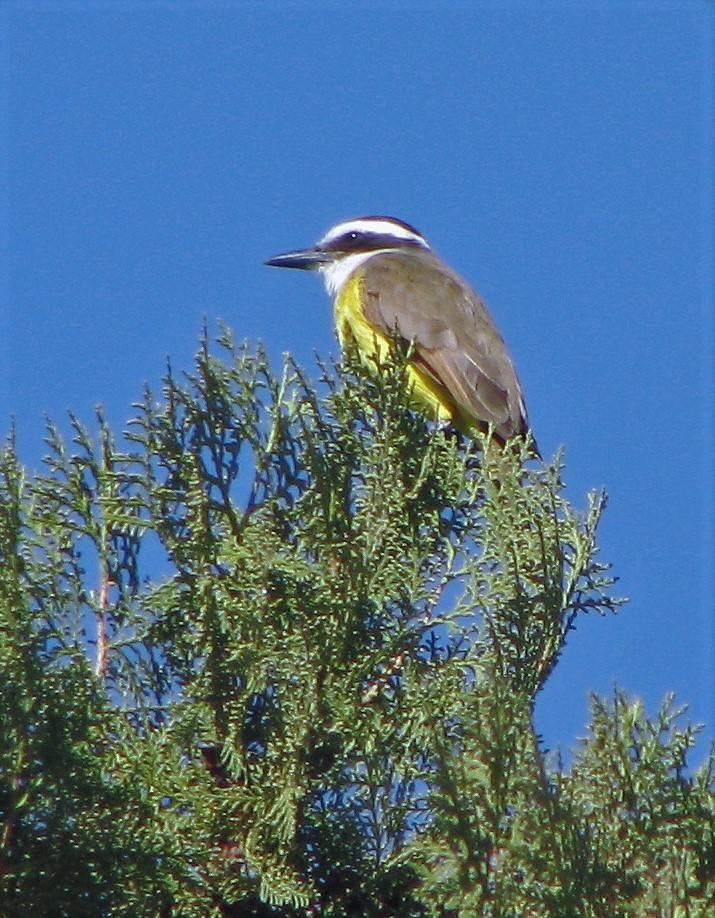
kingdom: Animalia
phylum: Chordata
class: Aves
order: Passeriformes
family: Tyrannidae
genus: Pitangus
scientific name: Pitangus sulphuratus
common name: Great kiskadee
